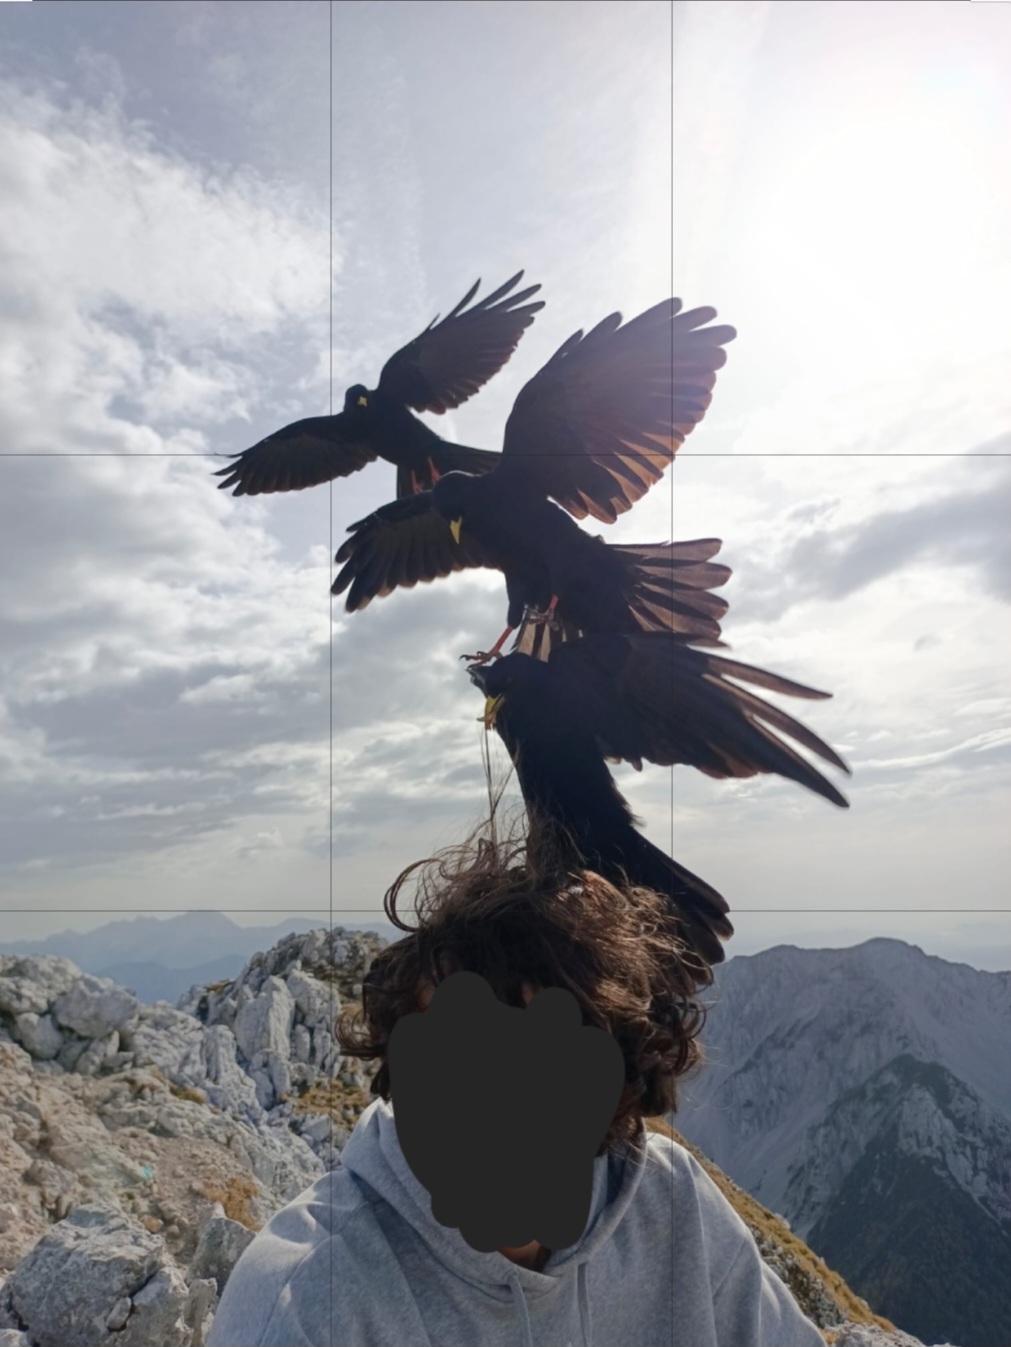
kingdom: Animalia
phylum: Chordata
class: Aves
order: Passeriformes
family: Corvidae
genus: Pyrrhocorax
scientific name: Pyrrhocorax graculus
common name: Alpine chough
